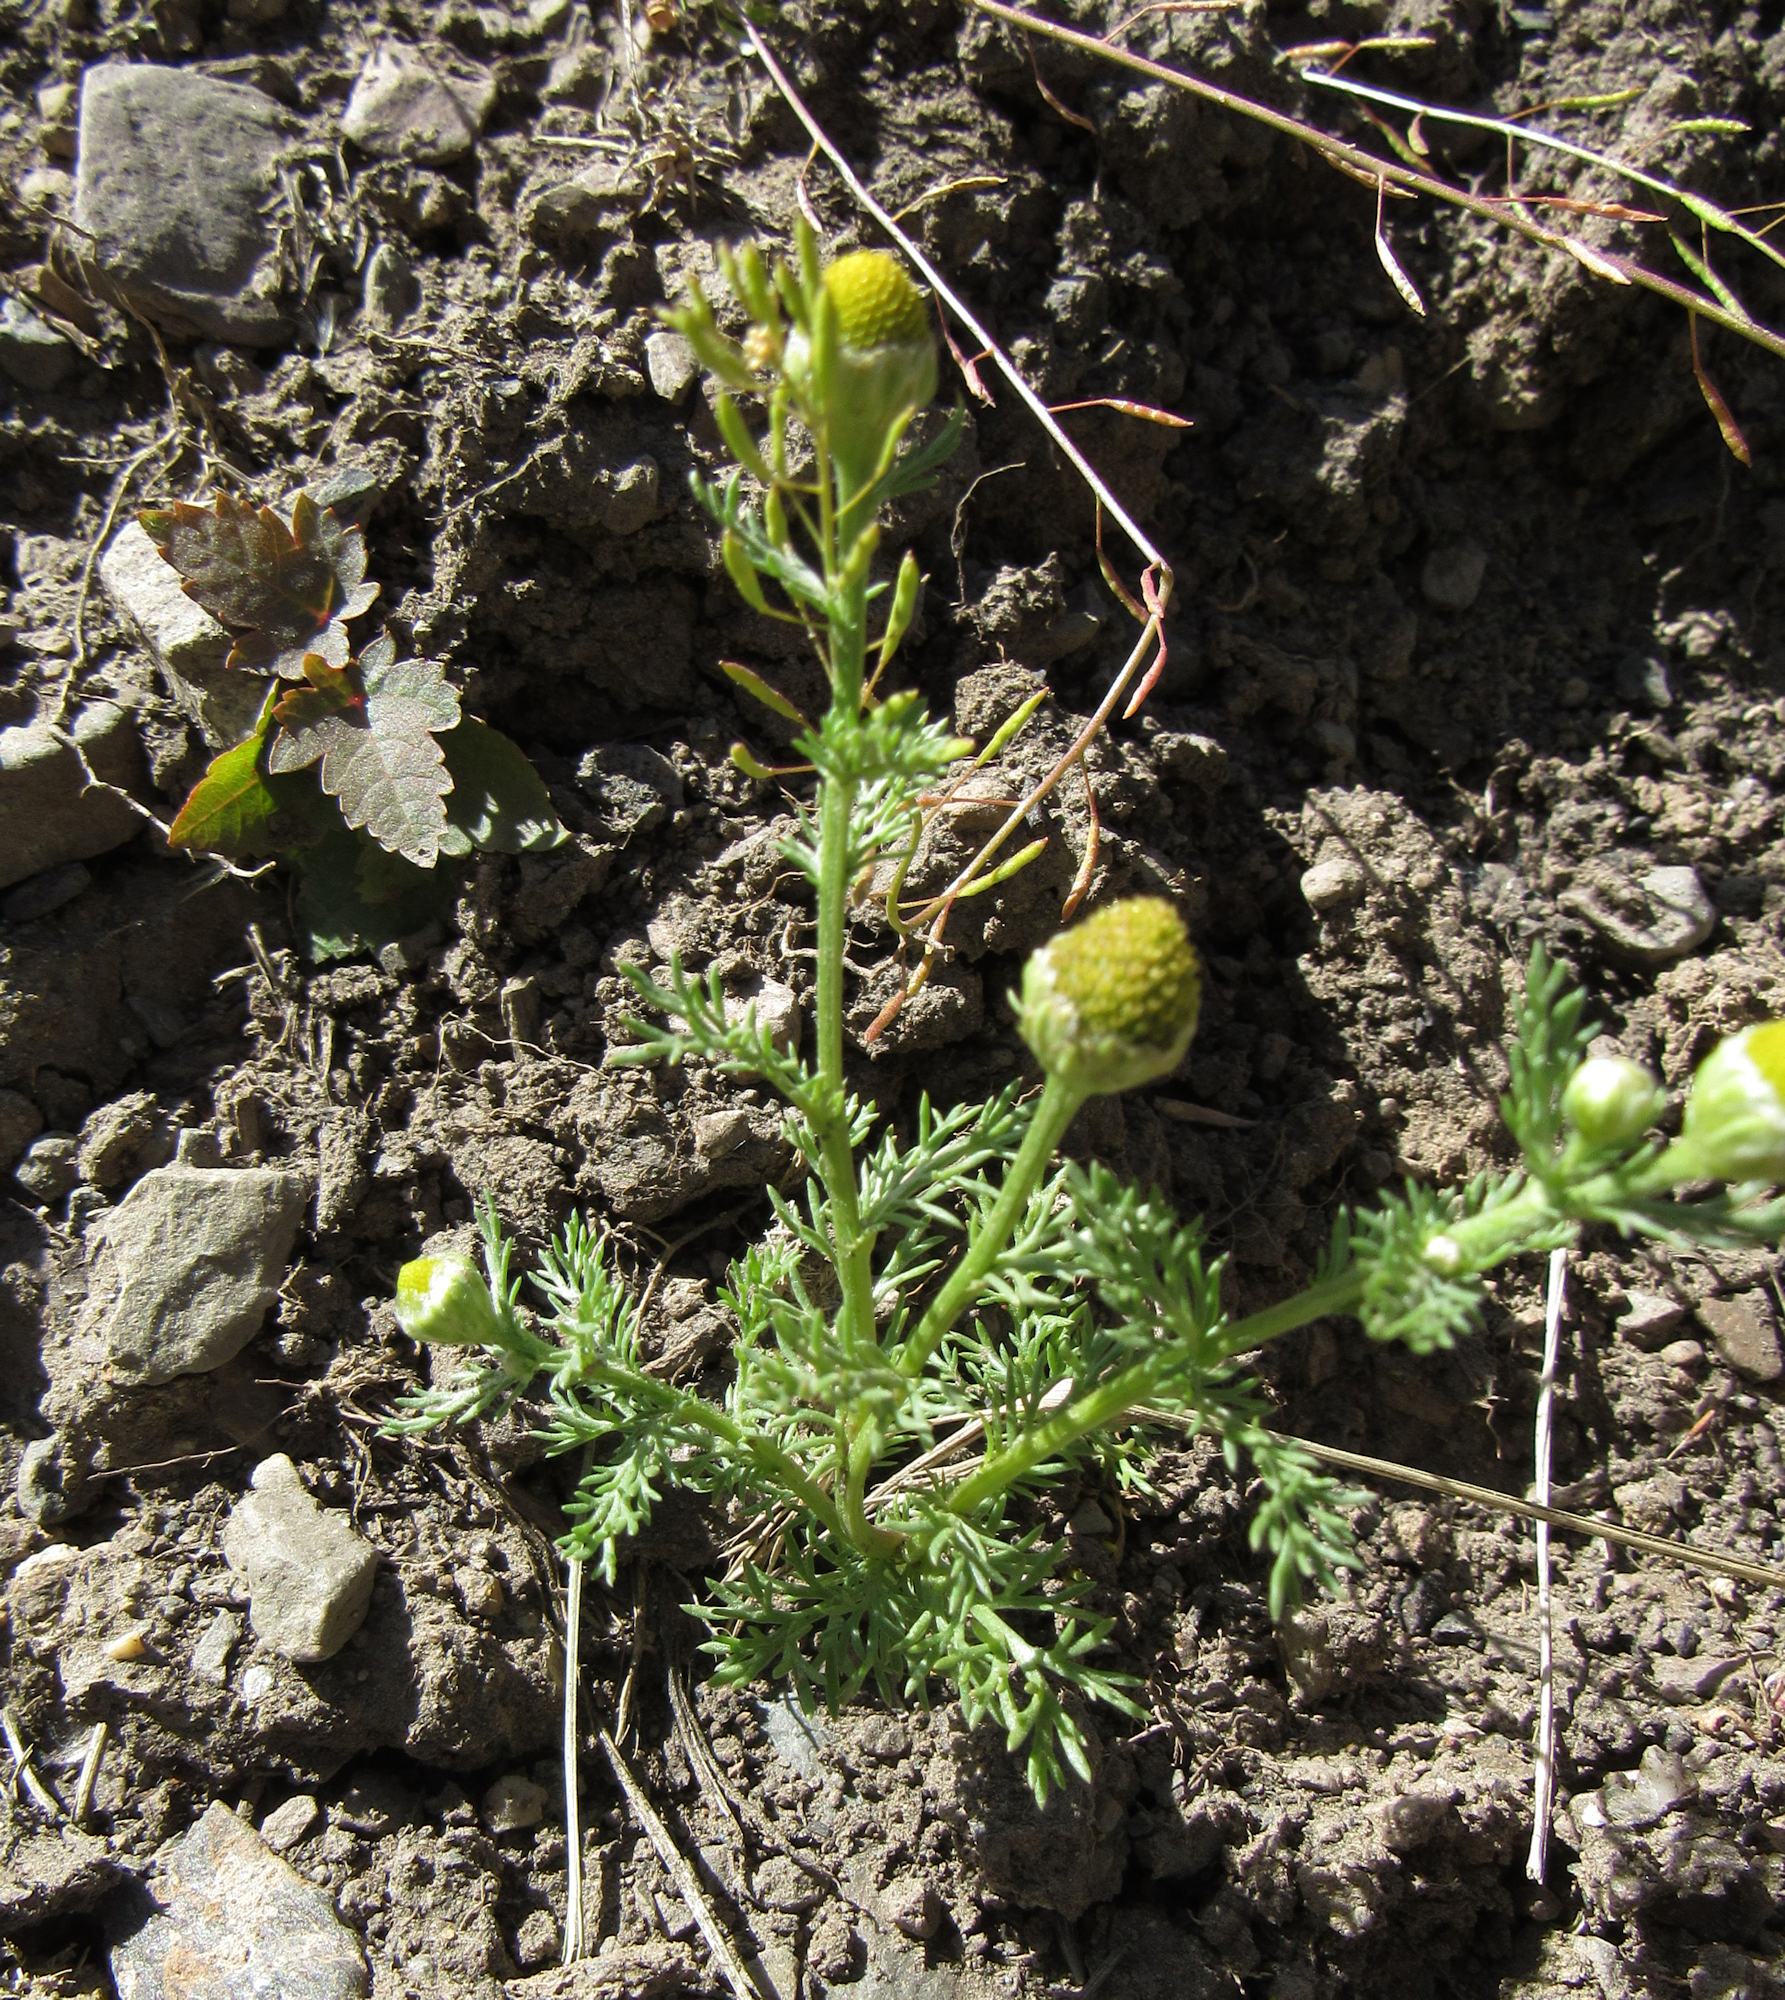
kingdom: Plantae
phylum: Tracheophyta
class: Magnoliopsida
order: Asterales
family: Asteraceae
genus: Matricaria
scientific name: Matricaria discoidea
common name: Disc mayweed
